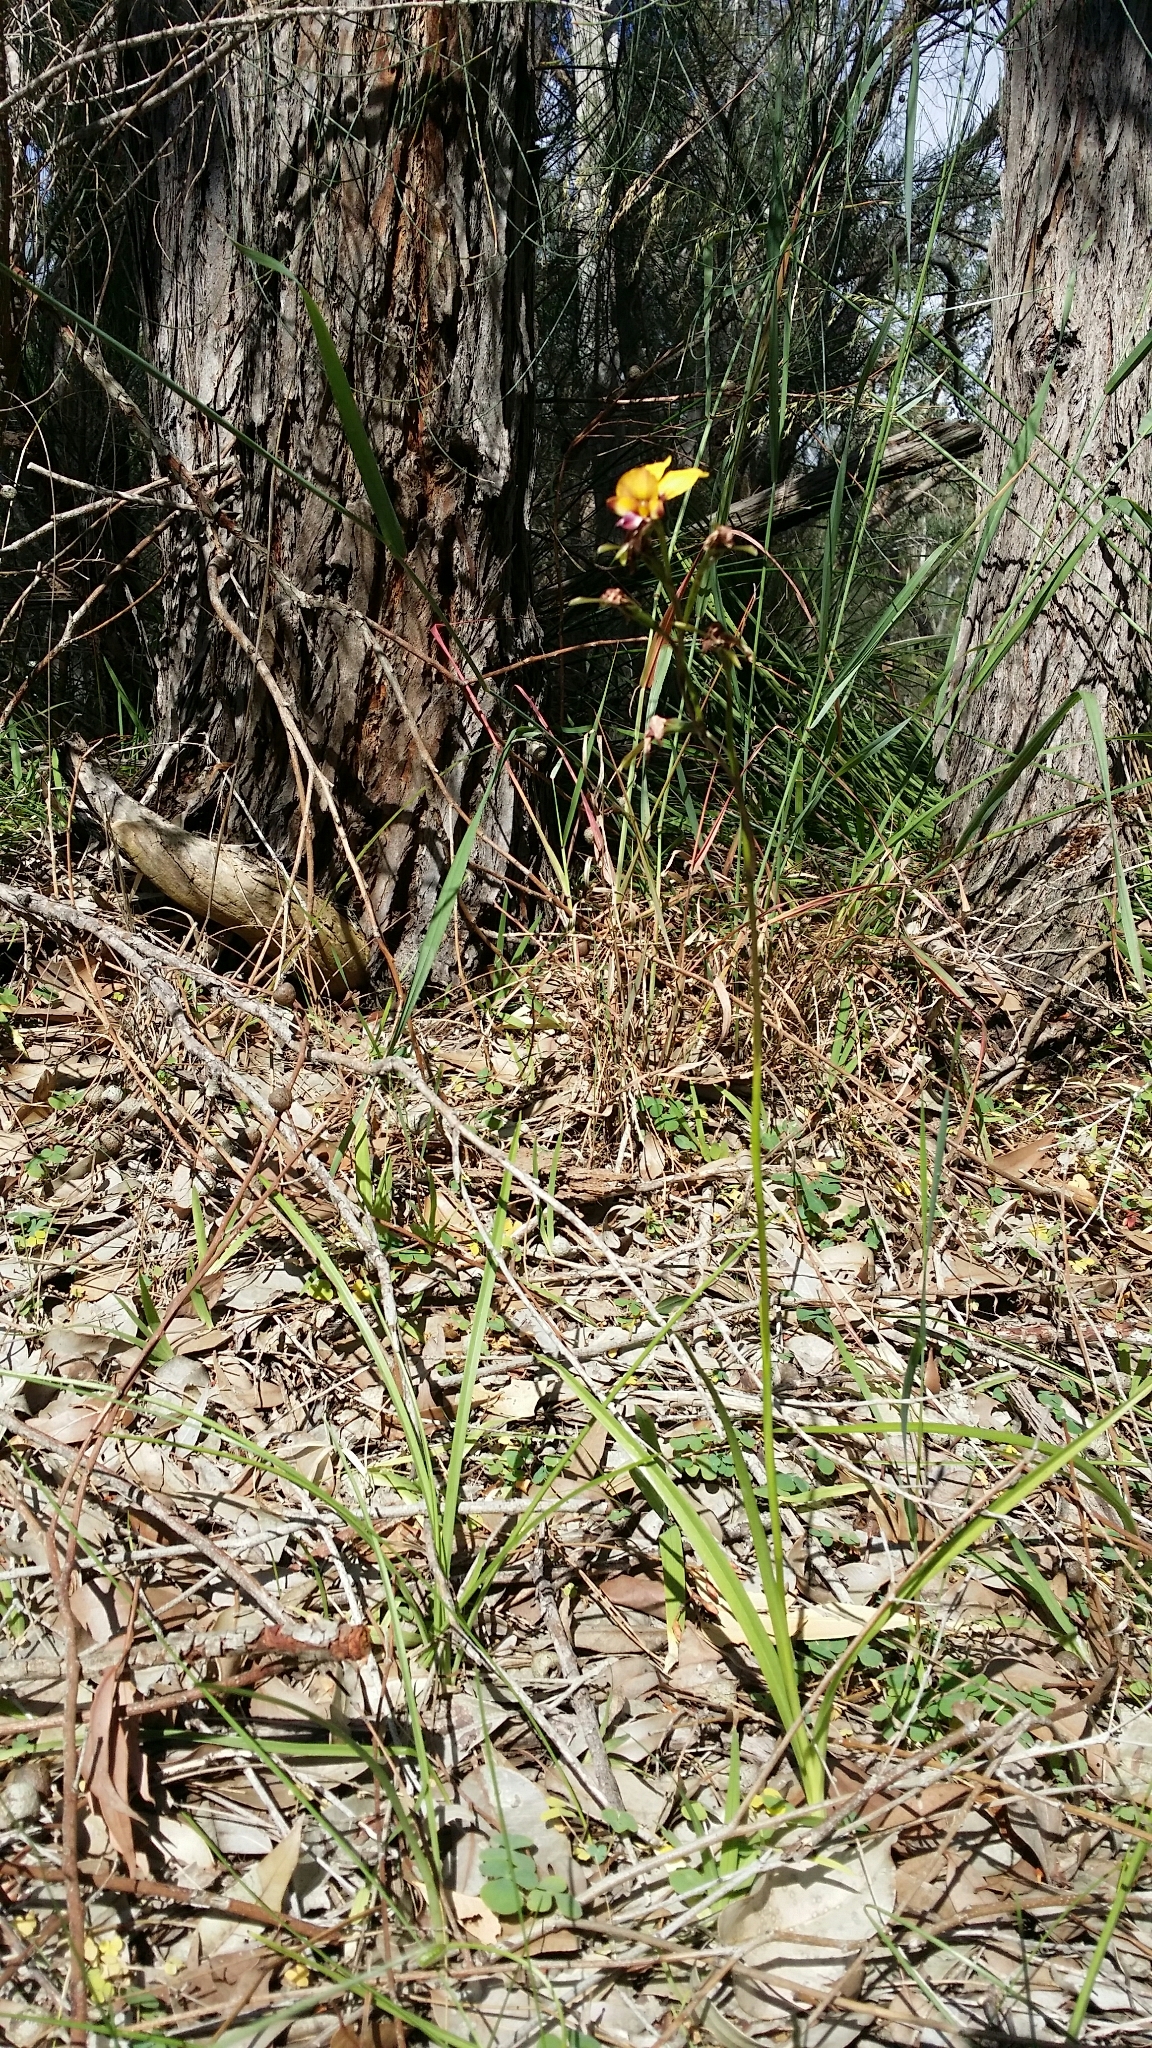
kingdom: Plantae
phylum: Tracheophyta
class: Liliopsida
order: Asparagales
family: Orchidaceae
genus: Diuris
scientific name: Diuris corymbosa
